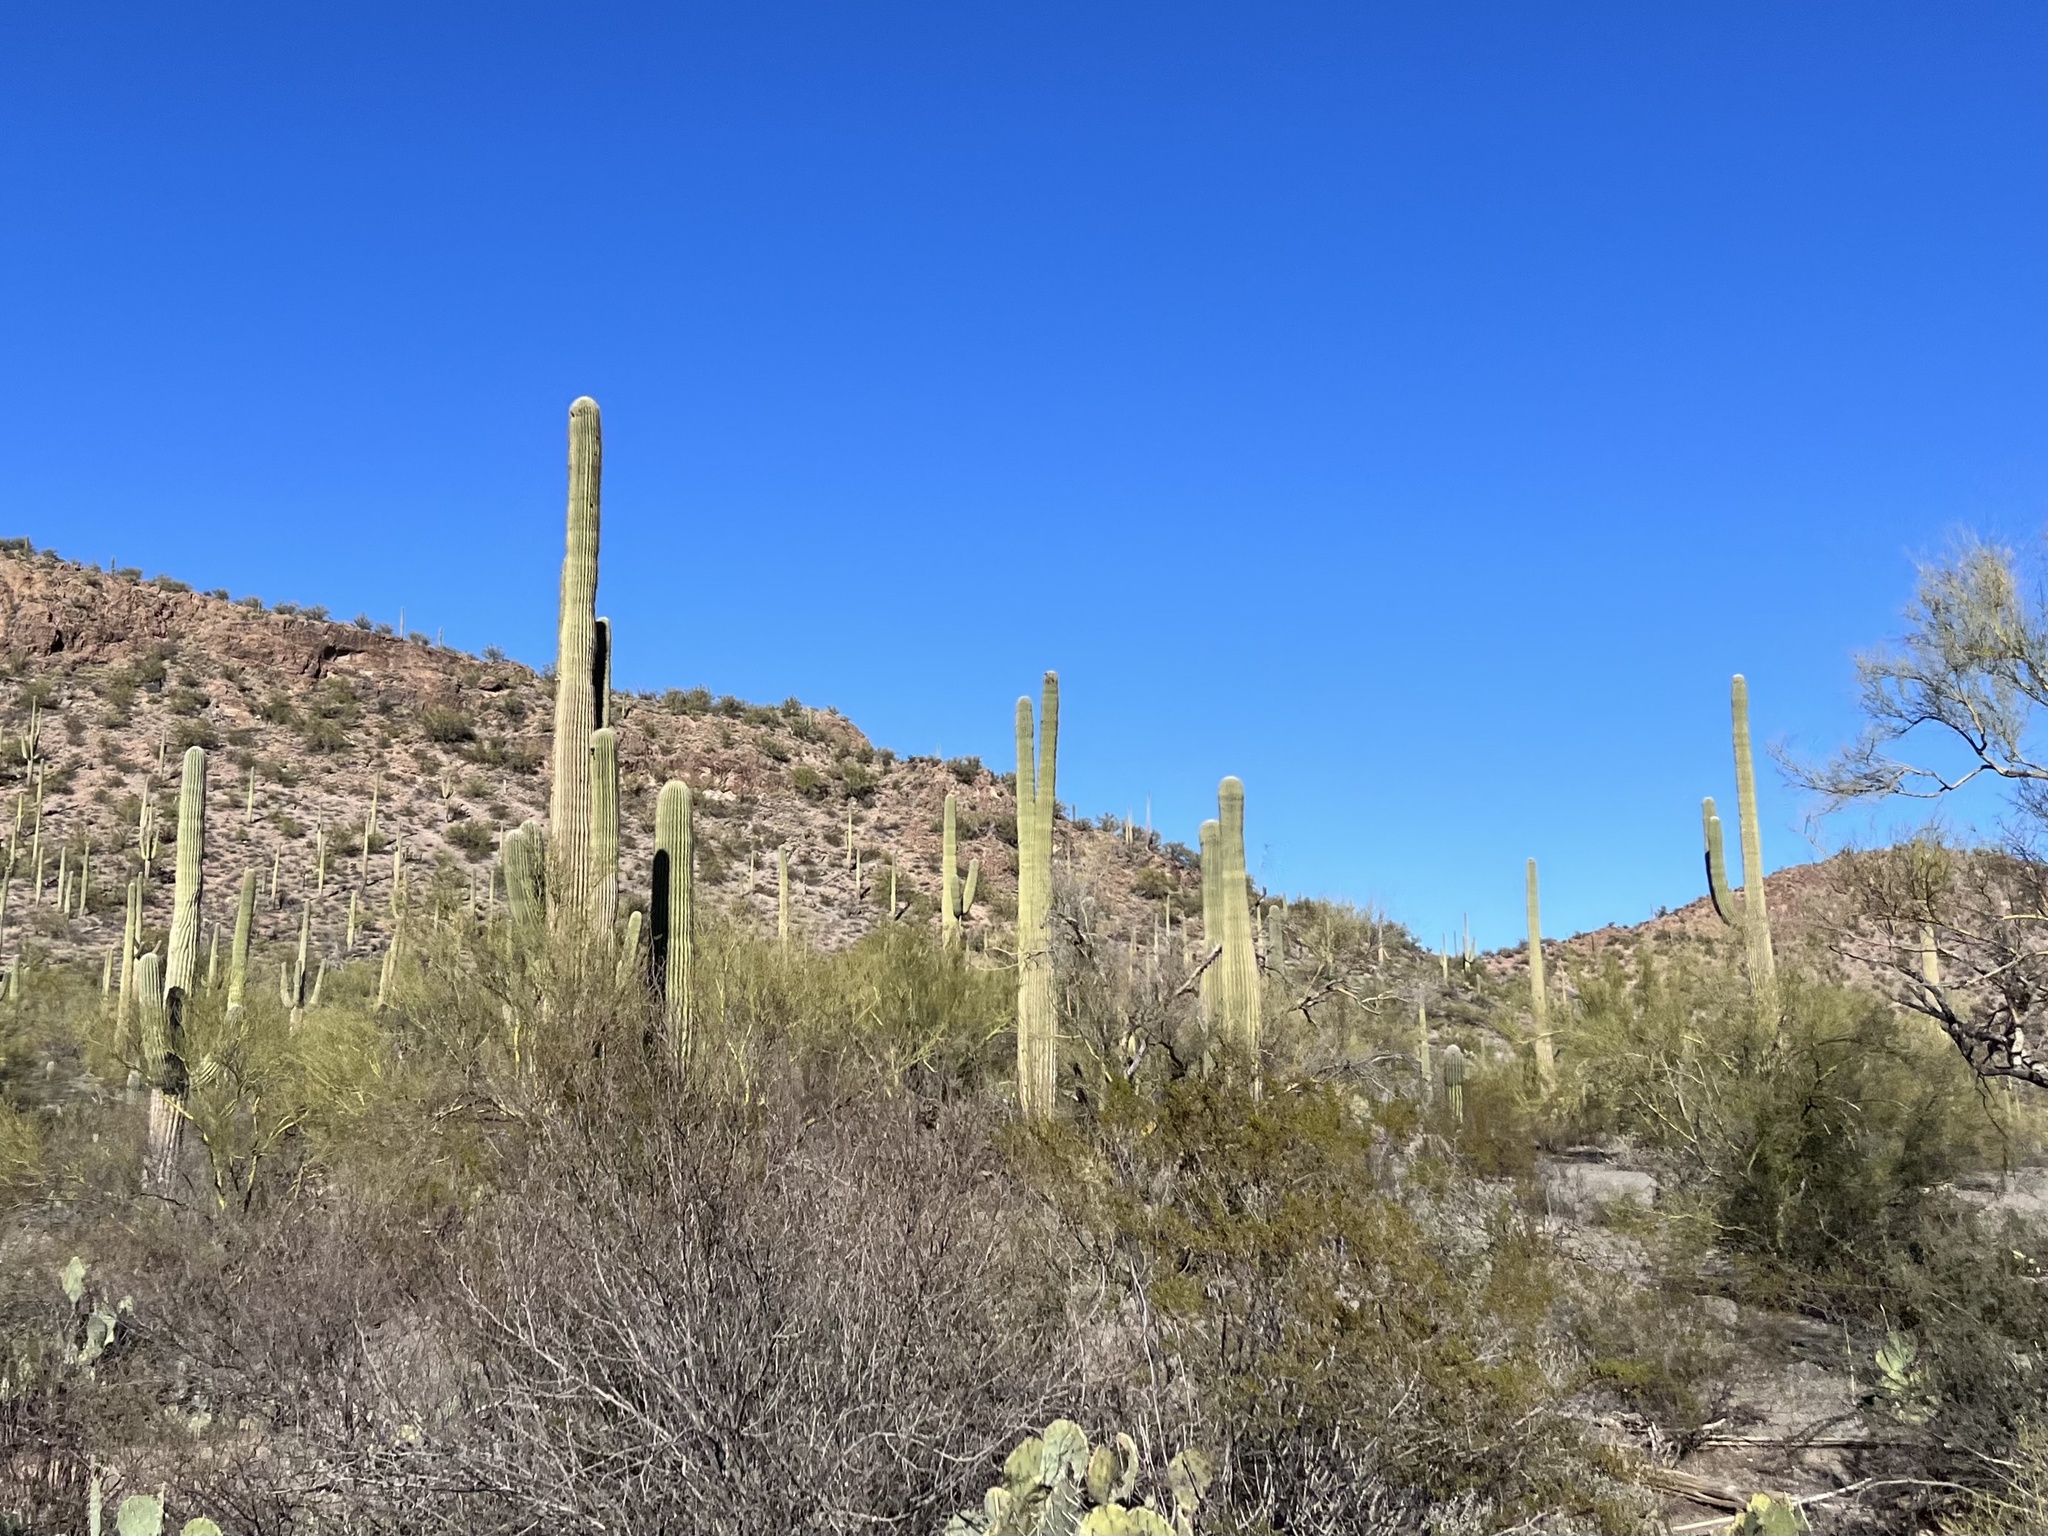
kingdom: Plantae
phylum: Tracheophyta
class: Magnoliopsida
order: Caryophyllales
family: Cactaceae
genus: Carnegiea
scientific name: Carnegiea gigantea
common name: Saguaro
